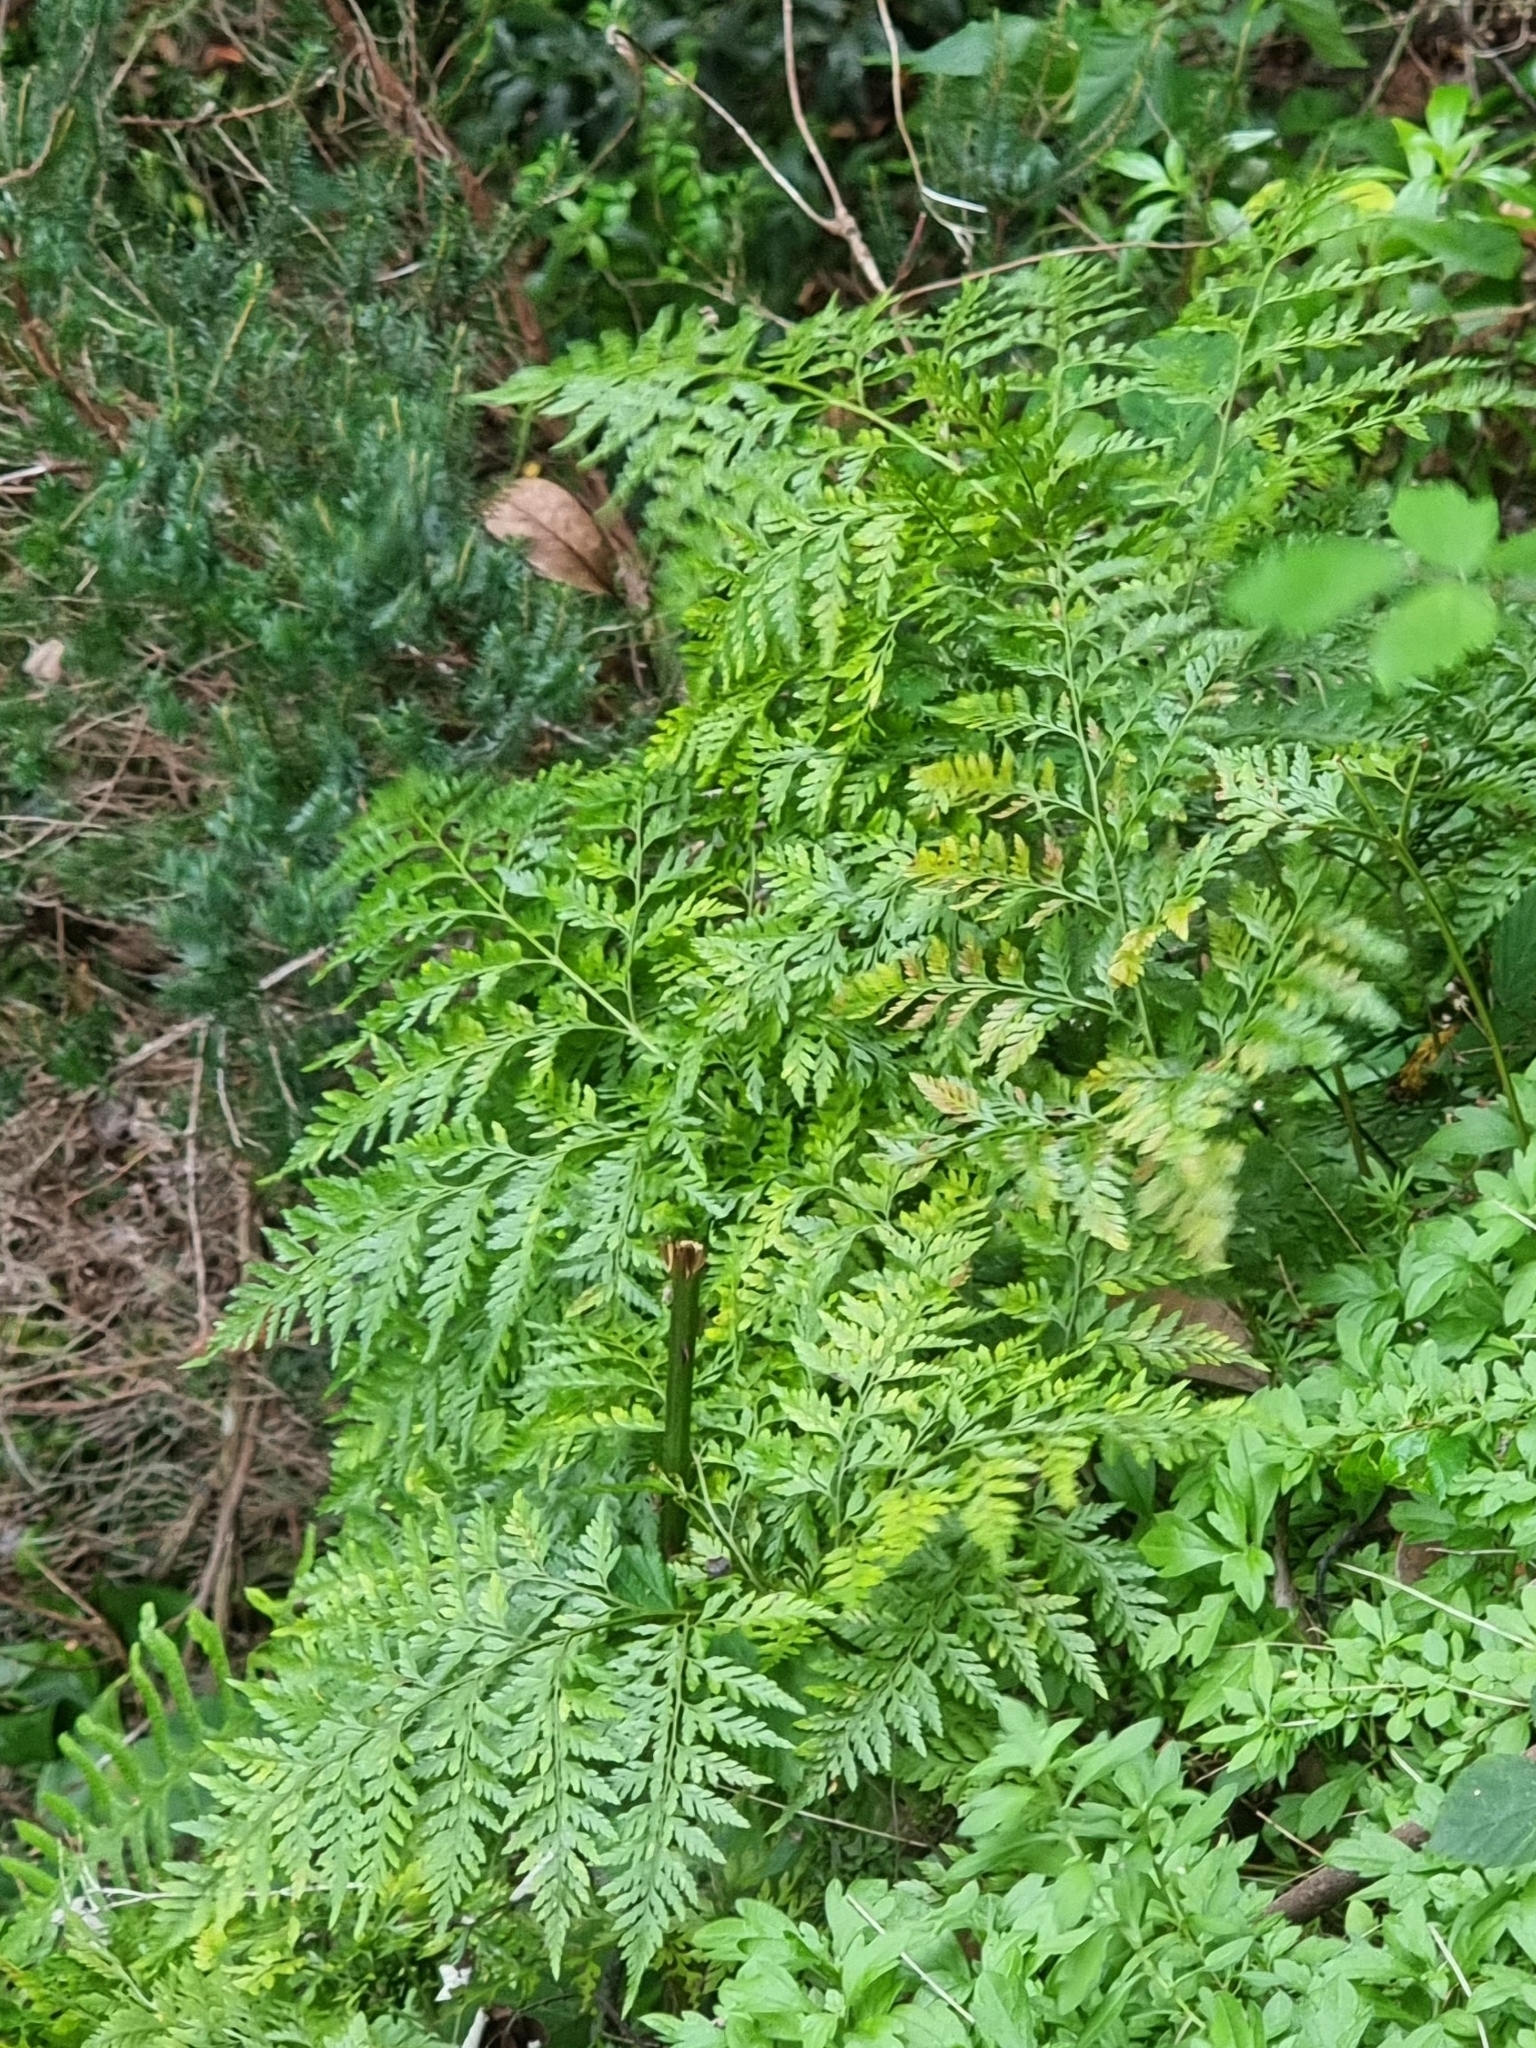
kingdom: Plantae
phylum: Tracheophyta
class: Polypodiopsida
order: Polypodiales
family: Davalliaceae
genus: Davallia
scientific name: Davallia canariensis
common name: Hare's-foot fern
